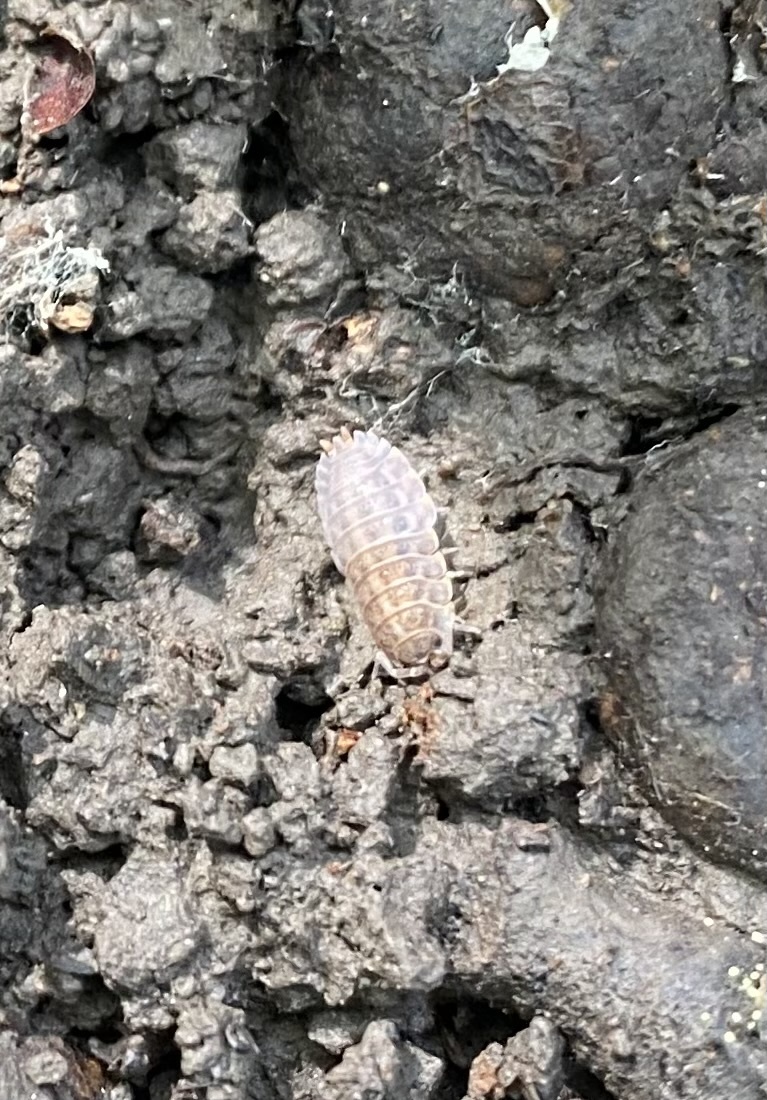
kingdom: Animalia
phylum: Arthropoda
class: Malacostraca
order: Isopoda
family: Trachelipodidae
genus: Trachelipus
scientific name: Trachelipus
